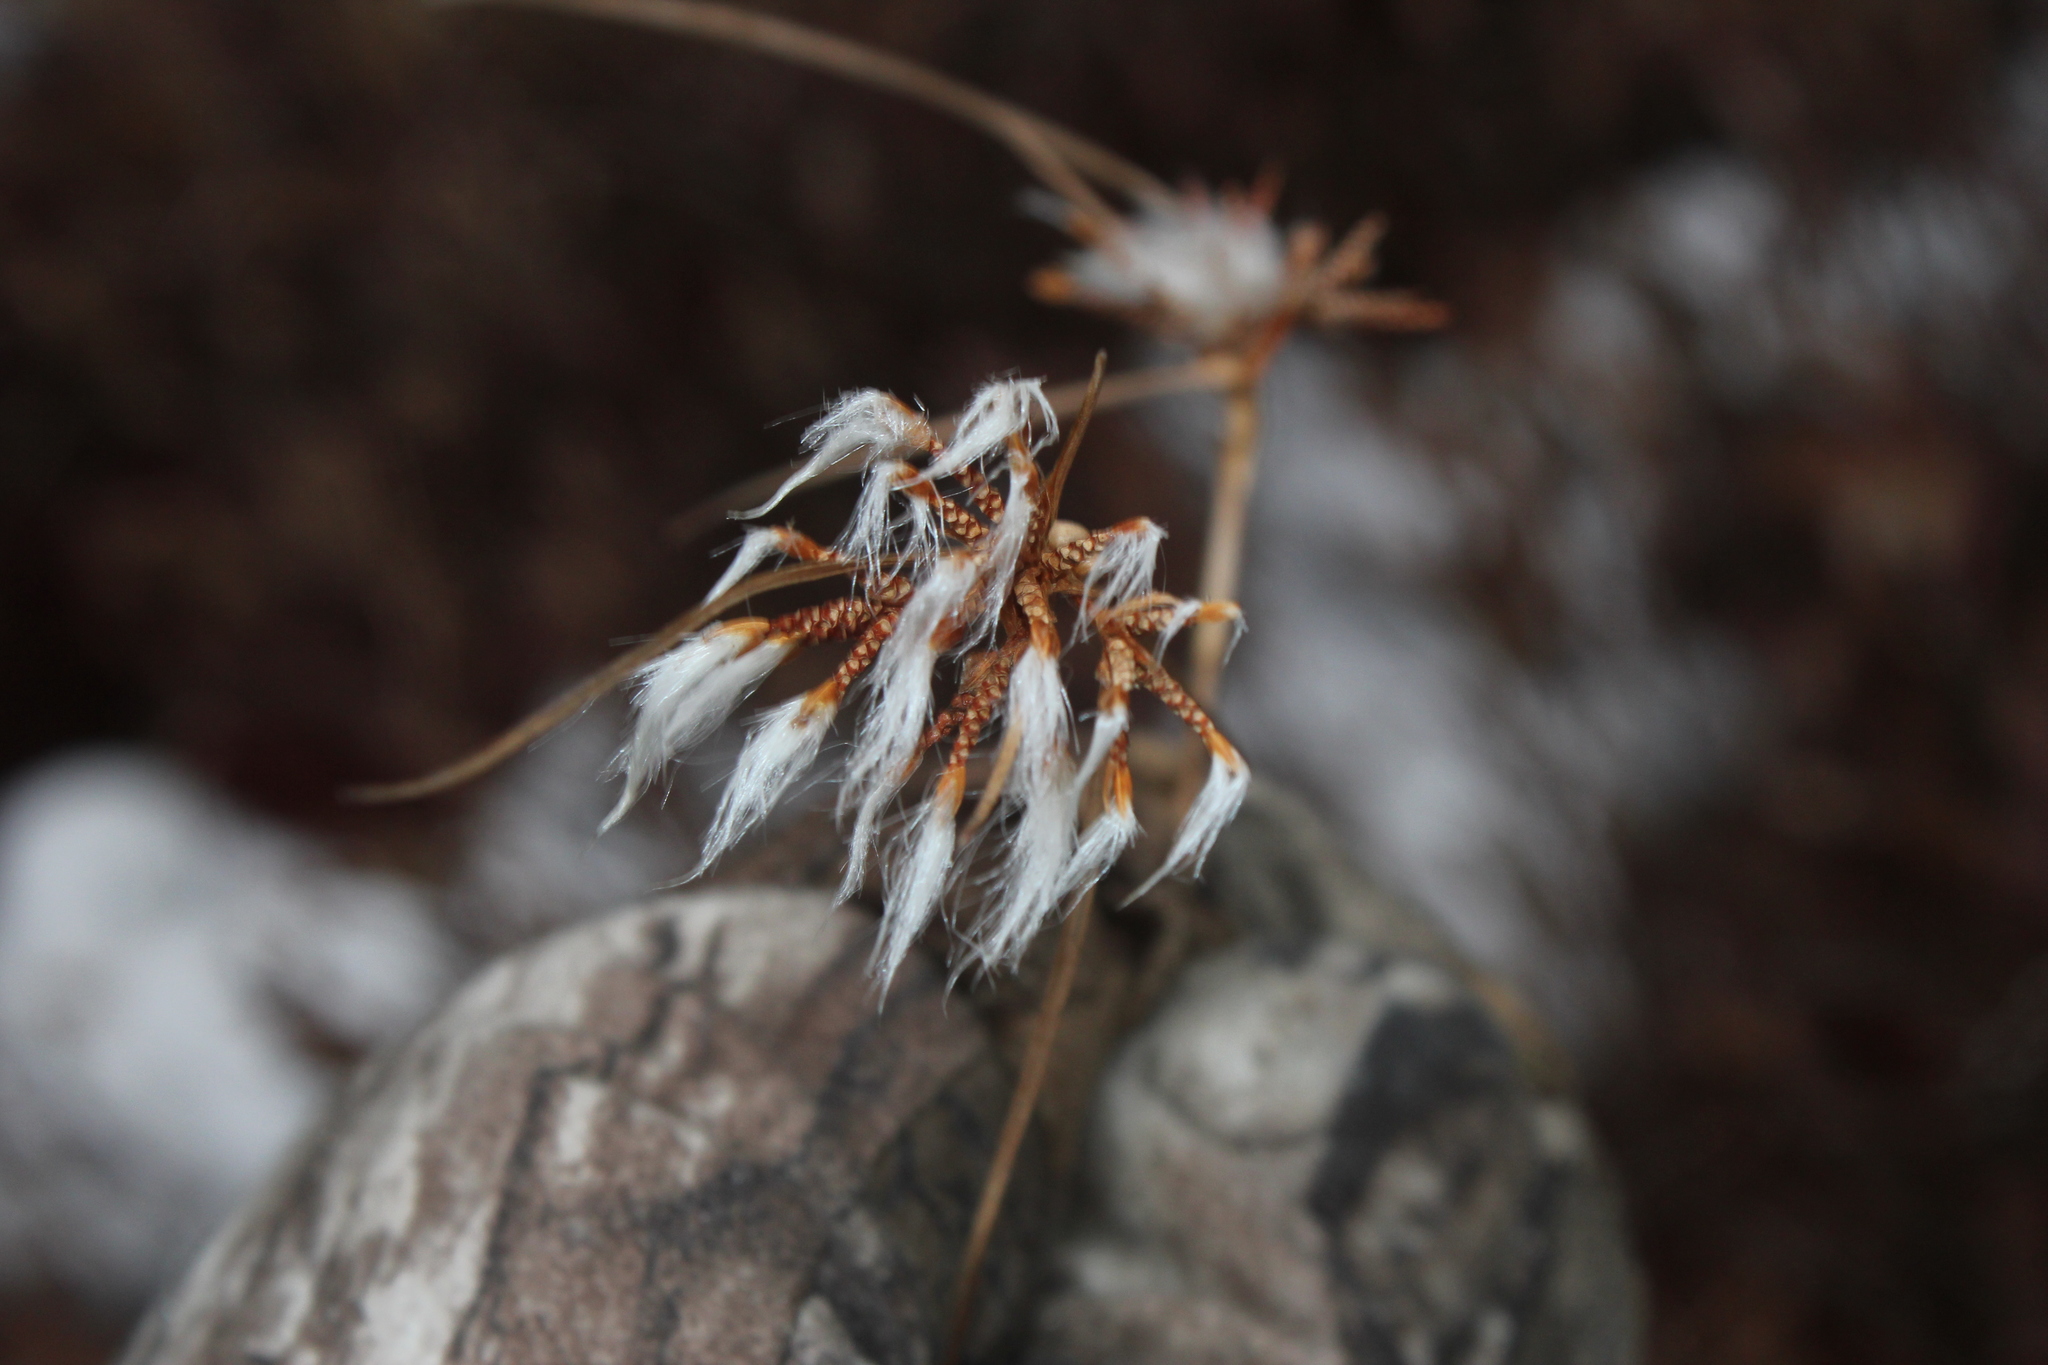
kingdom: Plantae
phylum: Tracheophyta
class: Liliopsida
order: Poales
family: Cyperaceae
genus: Eriophorum
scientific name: Eriophorum virginicum
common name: Tawny cottongrass
